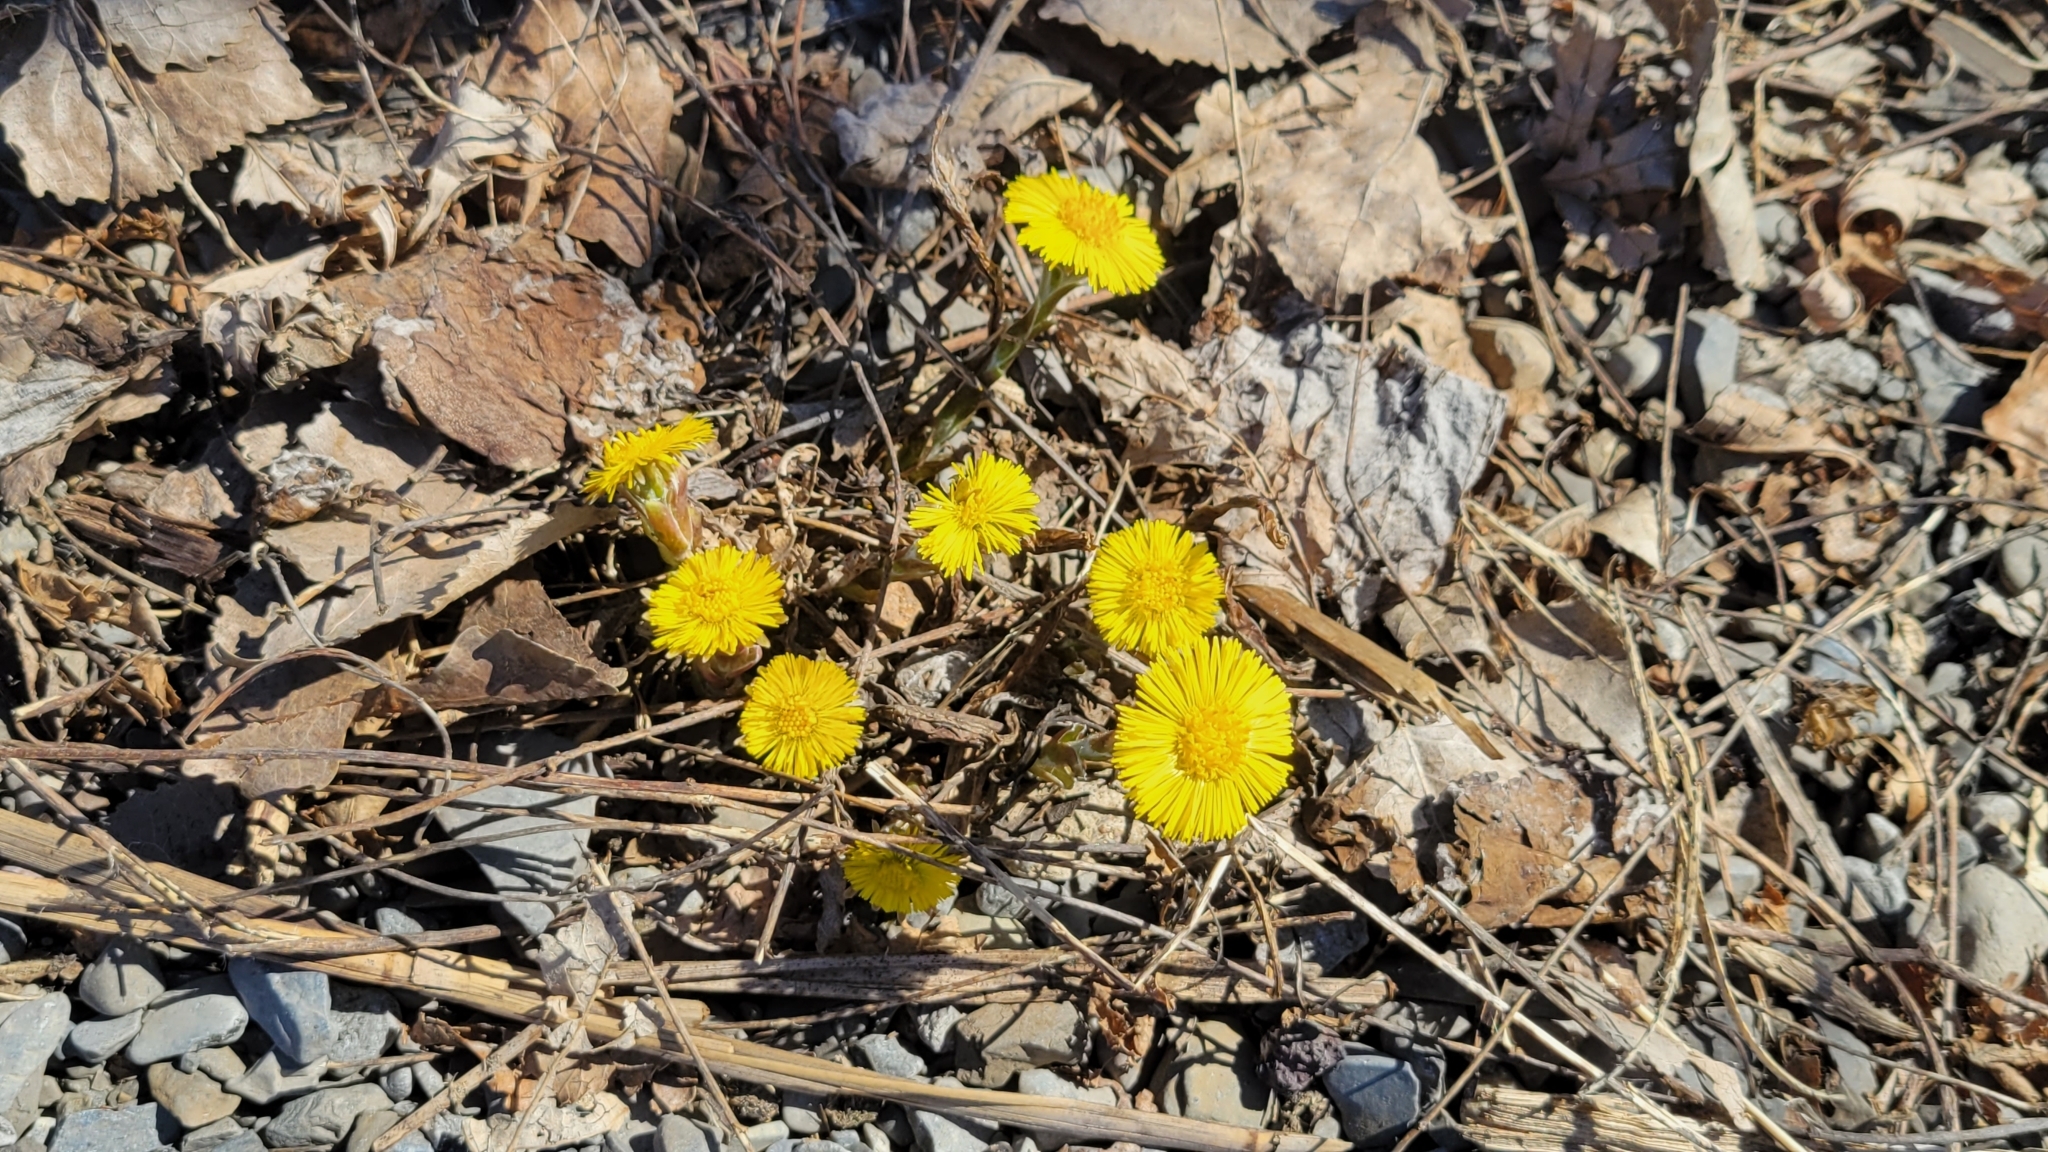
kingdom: Plantae
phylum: Tracheophyta
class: Magnoliopsida
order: Asterales
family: Asteraceae
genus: Tussilago
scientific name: Tussilago farfara
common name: Coltsfoot
